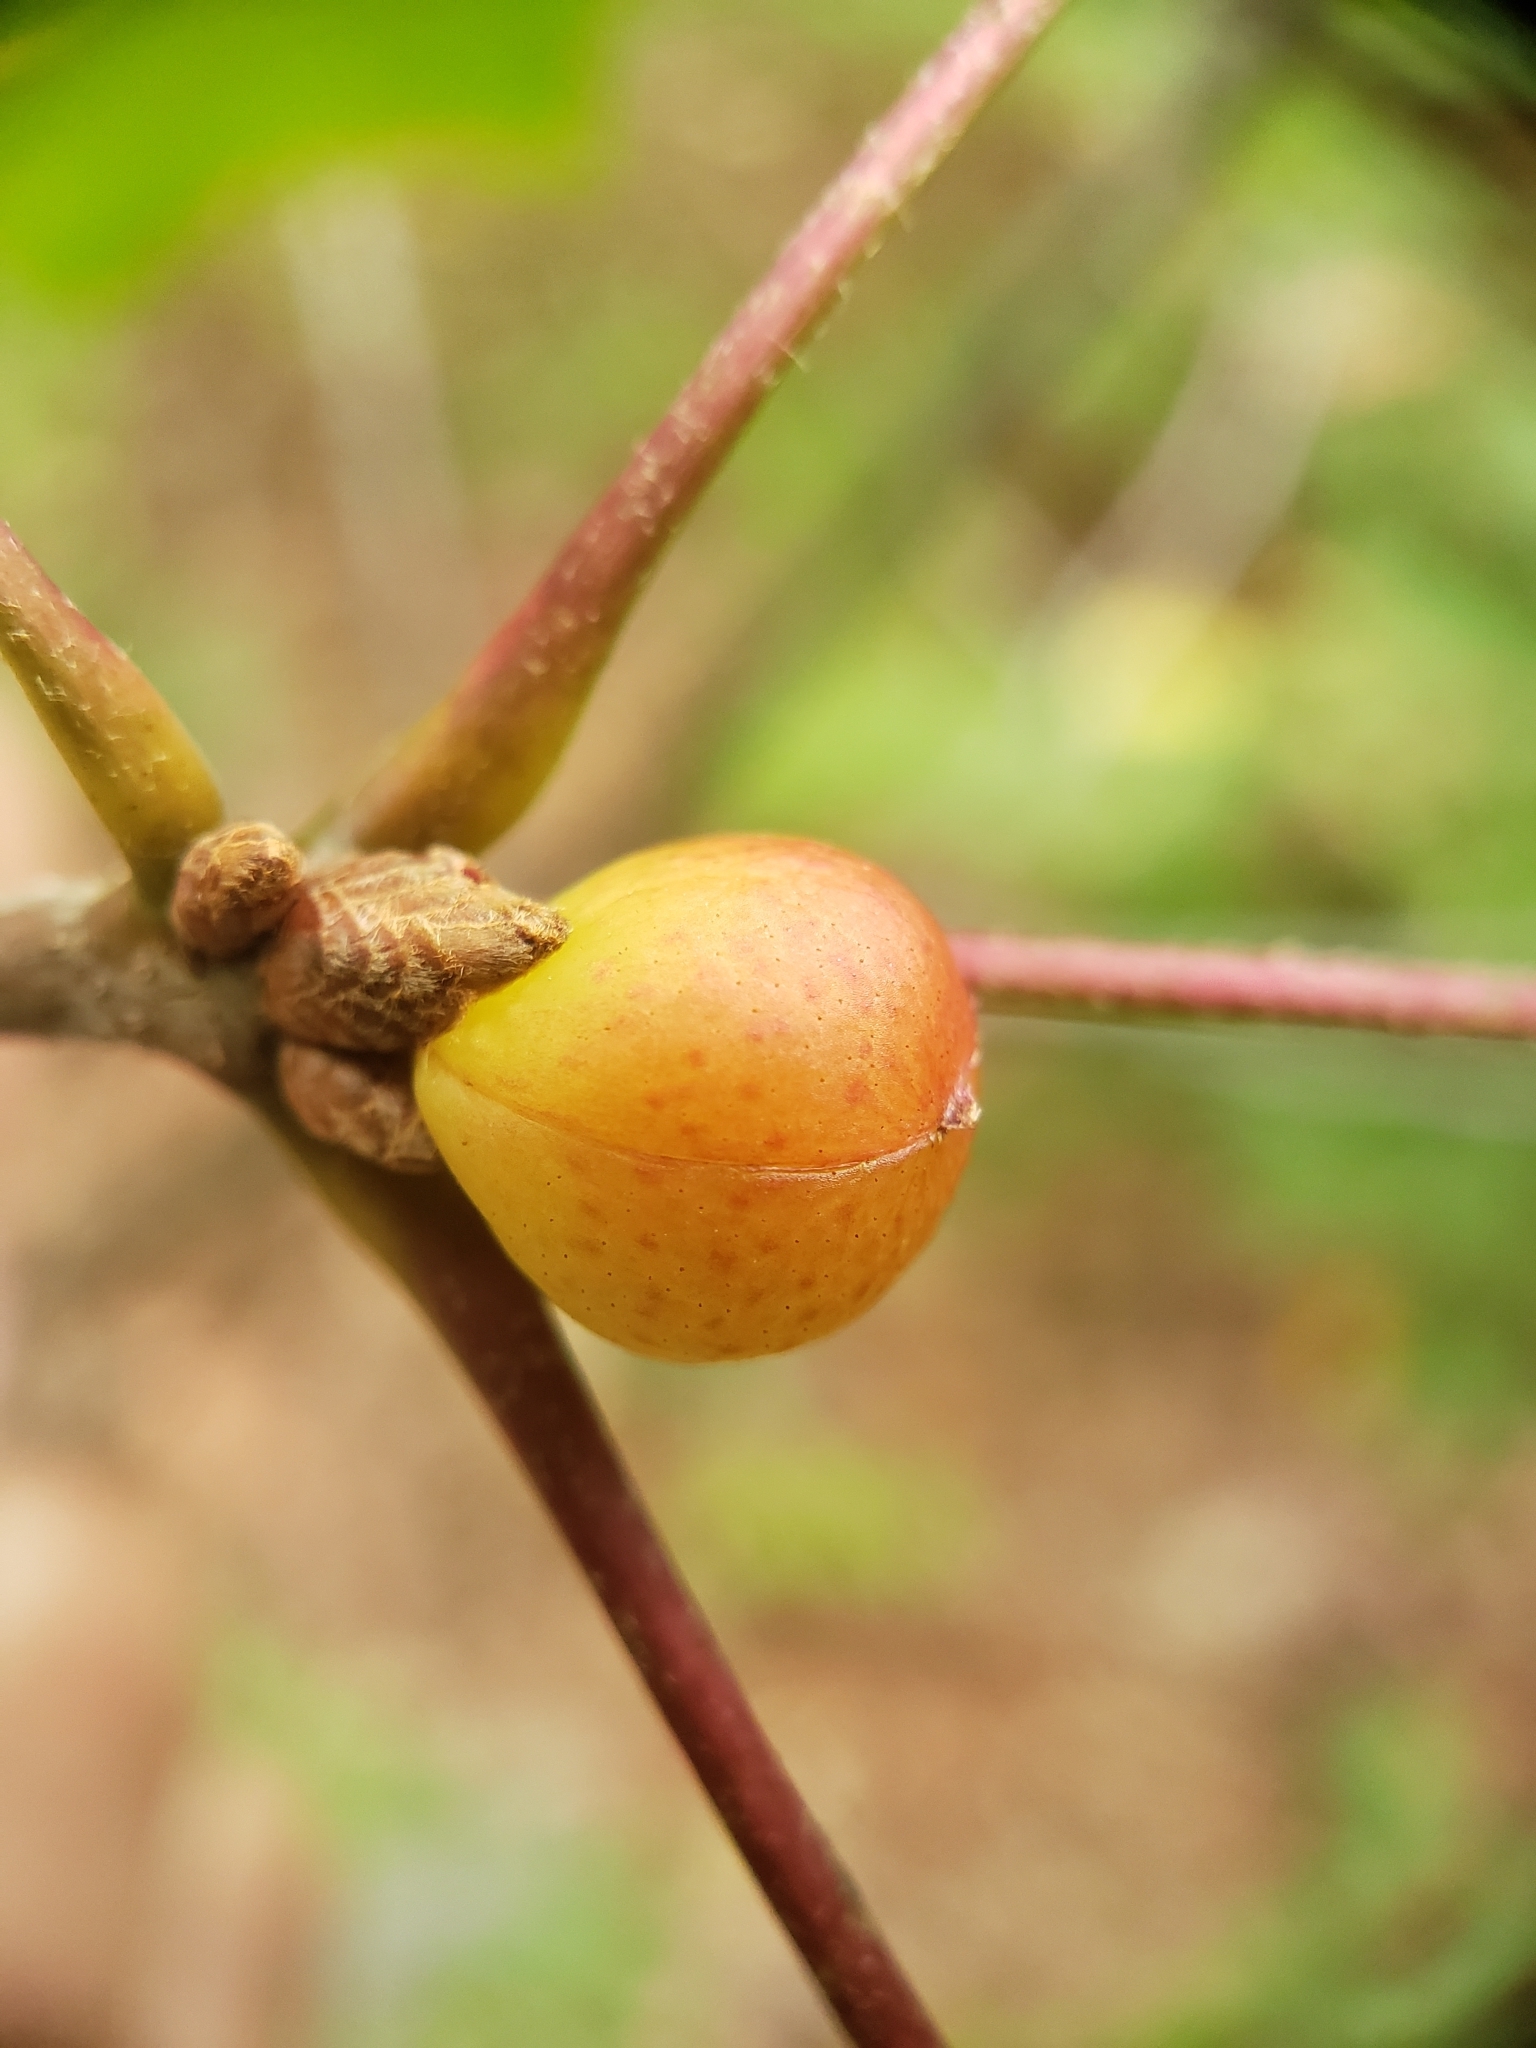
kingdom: Animalia
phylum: Arthropoda
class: Insecta
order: Hymenoptera
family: Cynipidae
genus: Amphibolips
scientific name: Amphibolips
